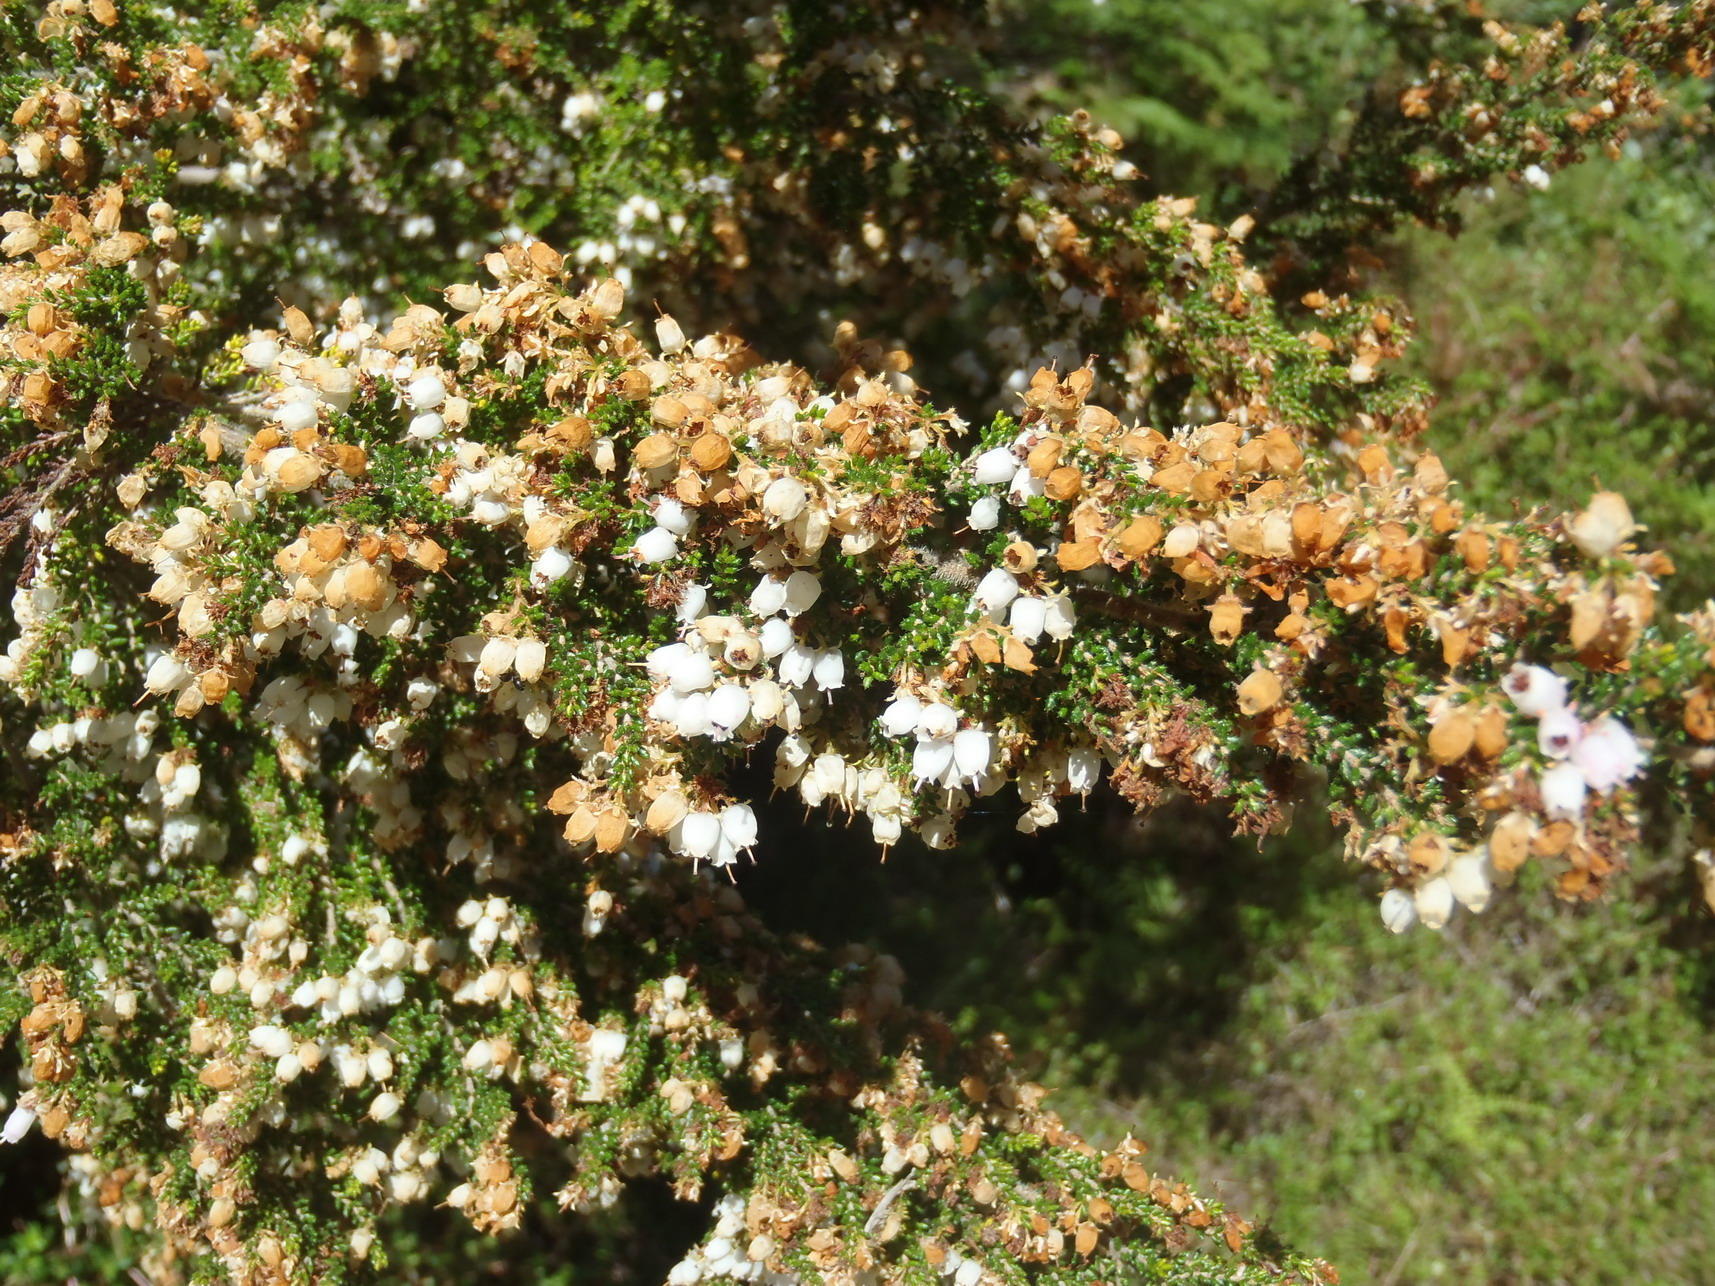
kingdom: Plantae
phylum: Tracheophyta
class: Magnoliopsida
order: Ericales
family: Ericaceae
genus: Erica
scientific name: Erica scabriuscula
